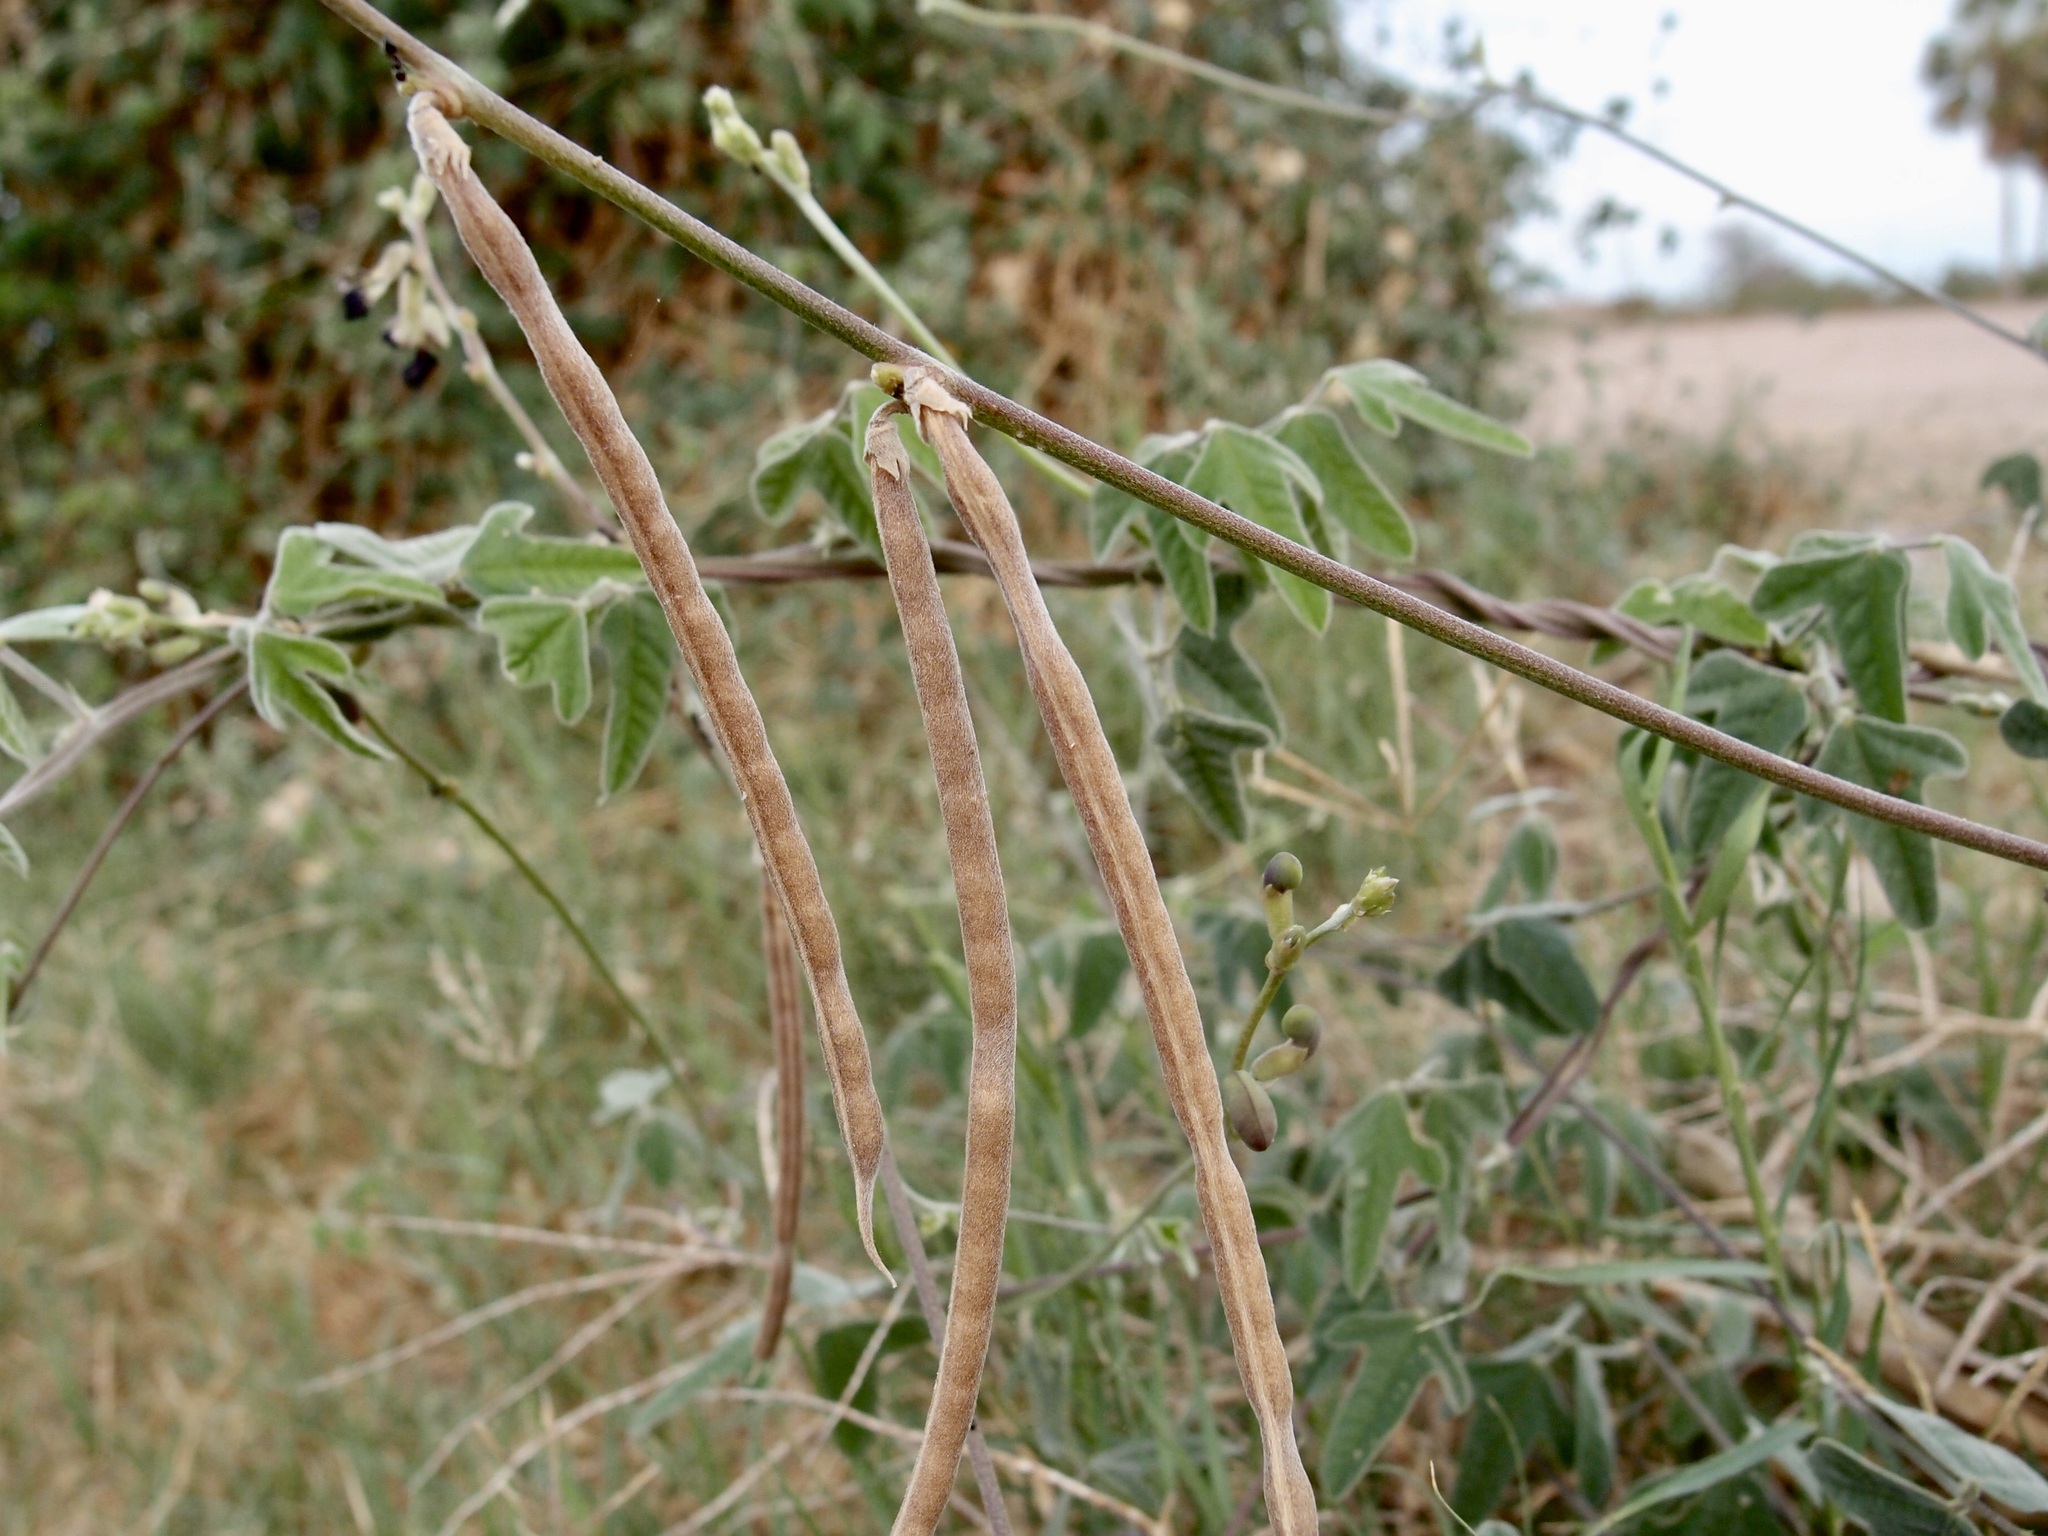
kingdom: Plantae
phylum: Tracheophyta
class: Magnoliopsida
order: Fabales
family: Fabaceae
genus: Macroptilium
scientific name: Macroptilium atropurpureum
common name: Purple bushbean
